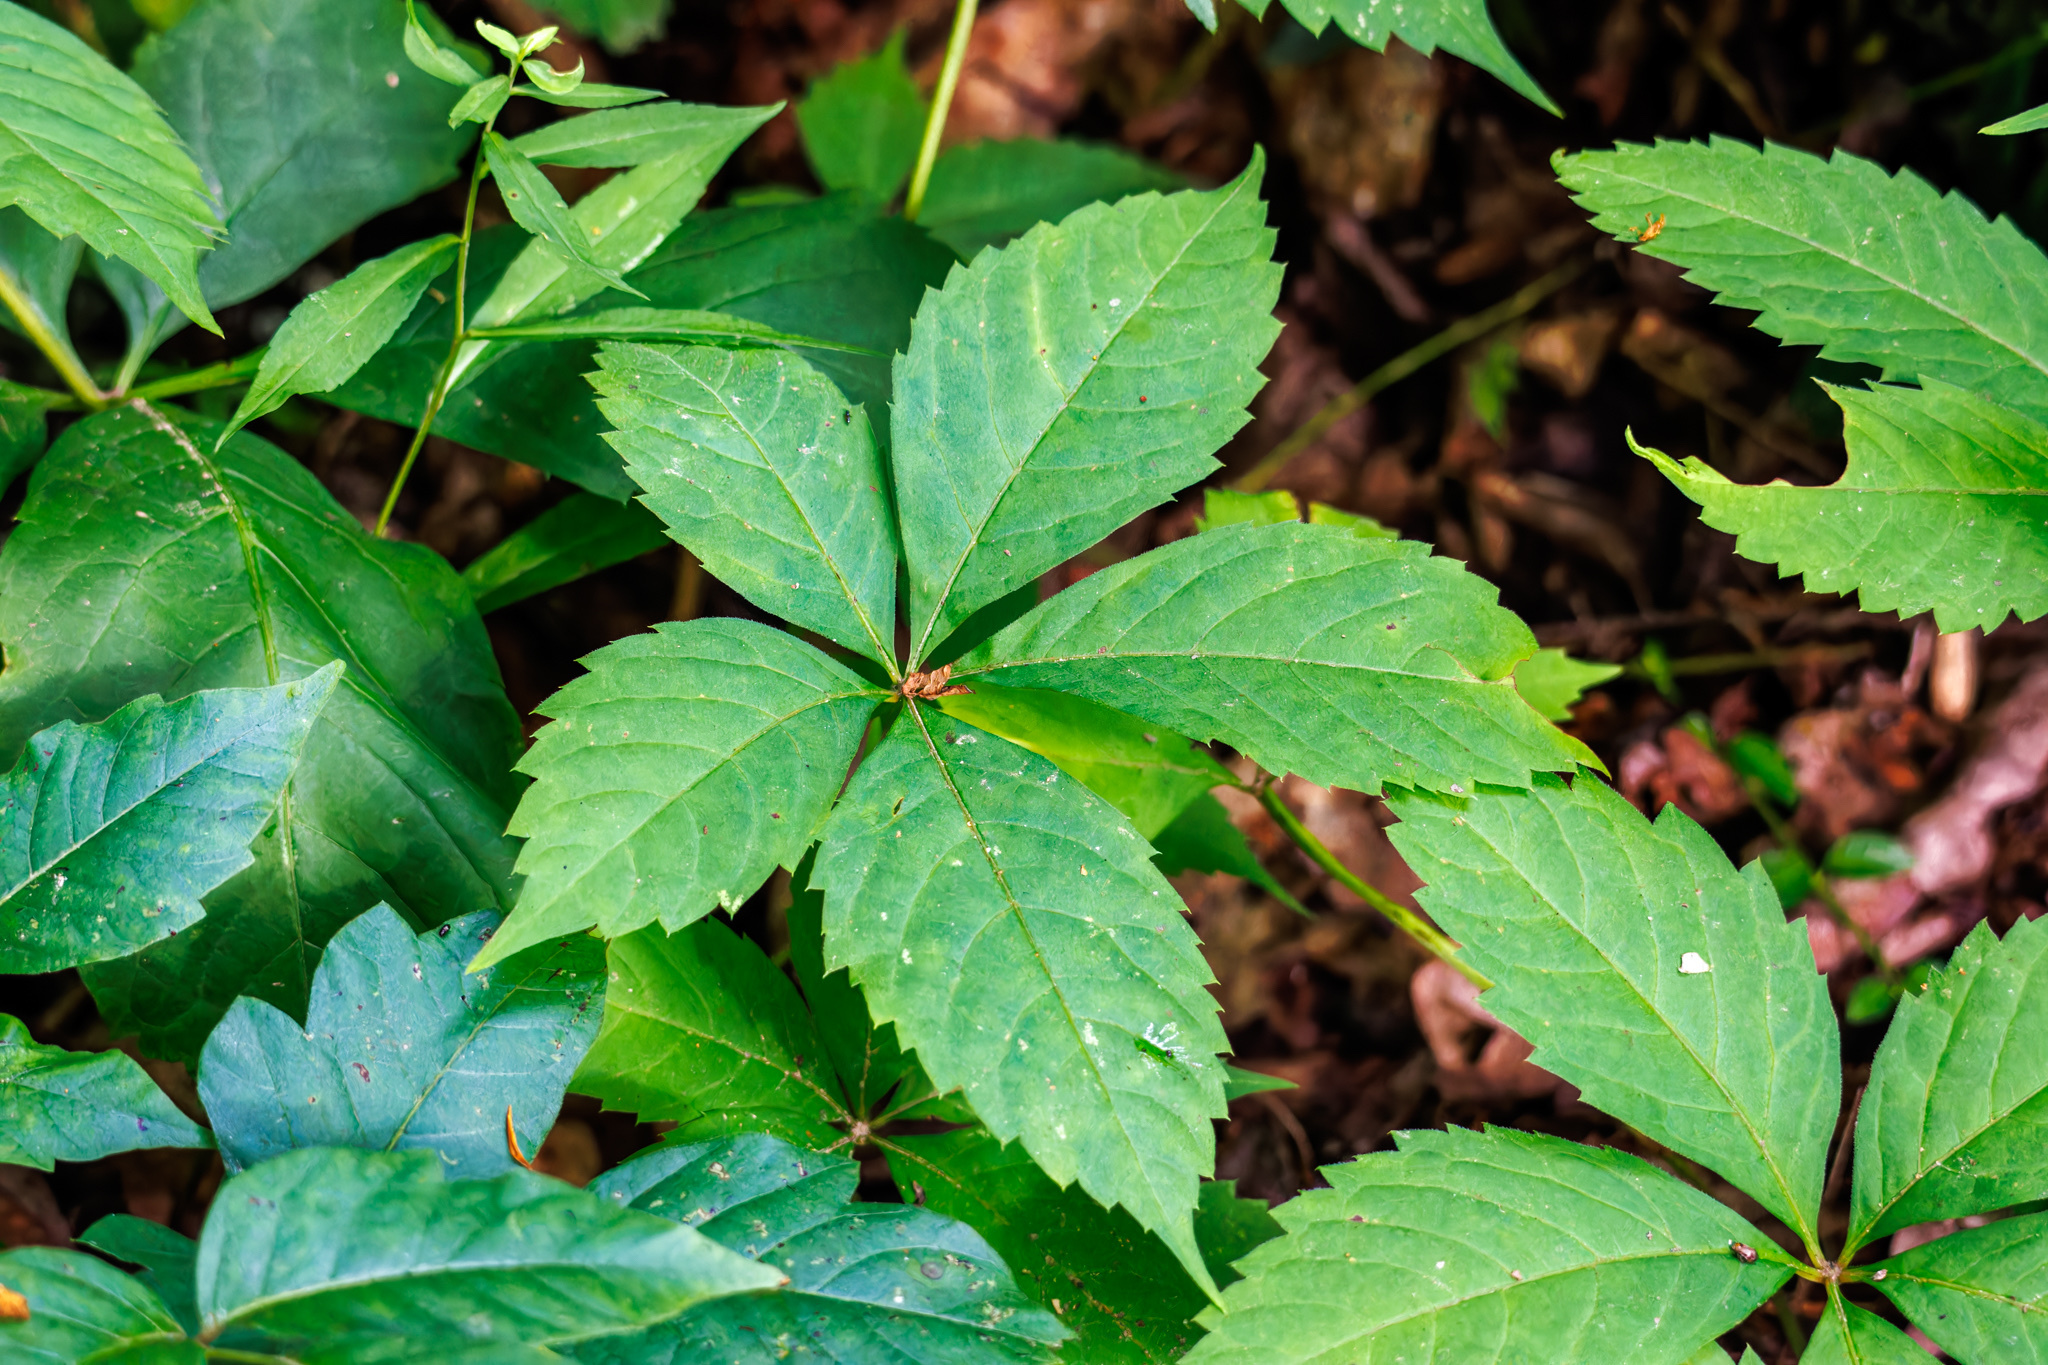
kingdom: Plantae
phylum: Tracheophyta
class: Magnoliopsida
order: Vitales
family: Vitaceae
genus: Parthenocissus
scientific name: Parthenocissus quinquefolia
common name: Virginia-creeper
